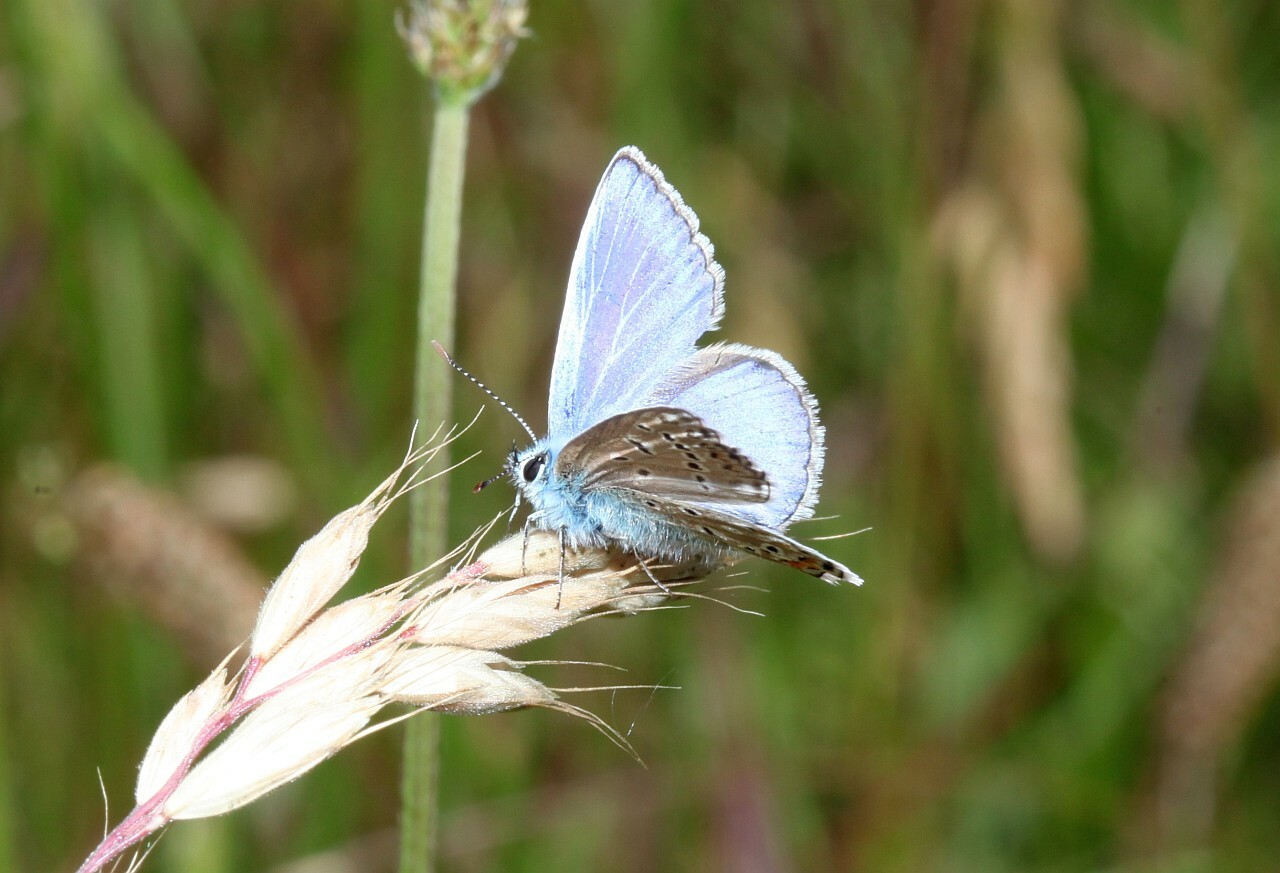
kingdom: Animalia
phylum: Arthropoda
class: Insecta
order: Lepidoptera
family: Lycaenidae
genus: Polyommatus
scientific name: Polyommatus icarus
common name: Common blue
